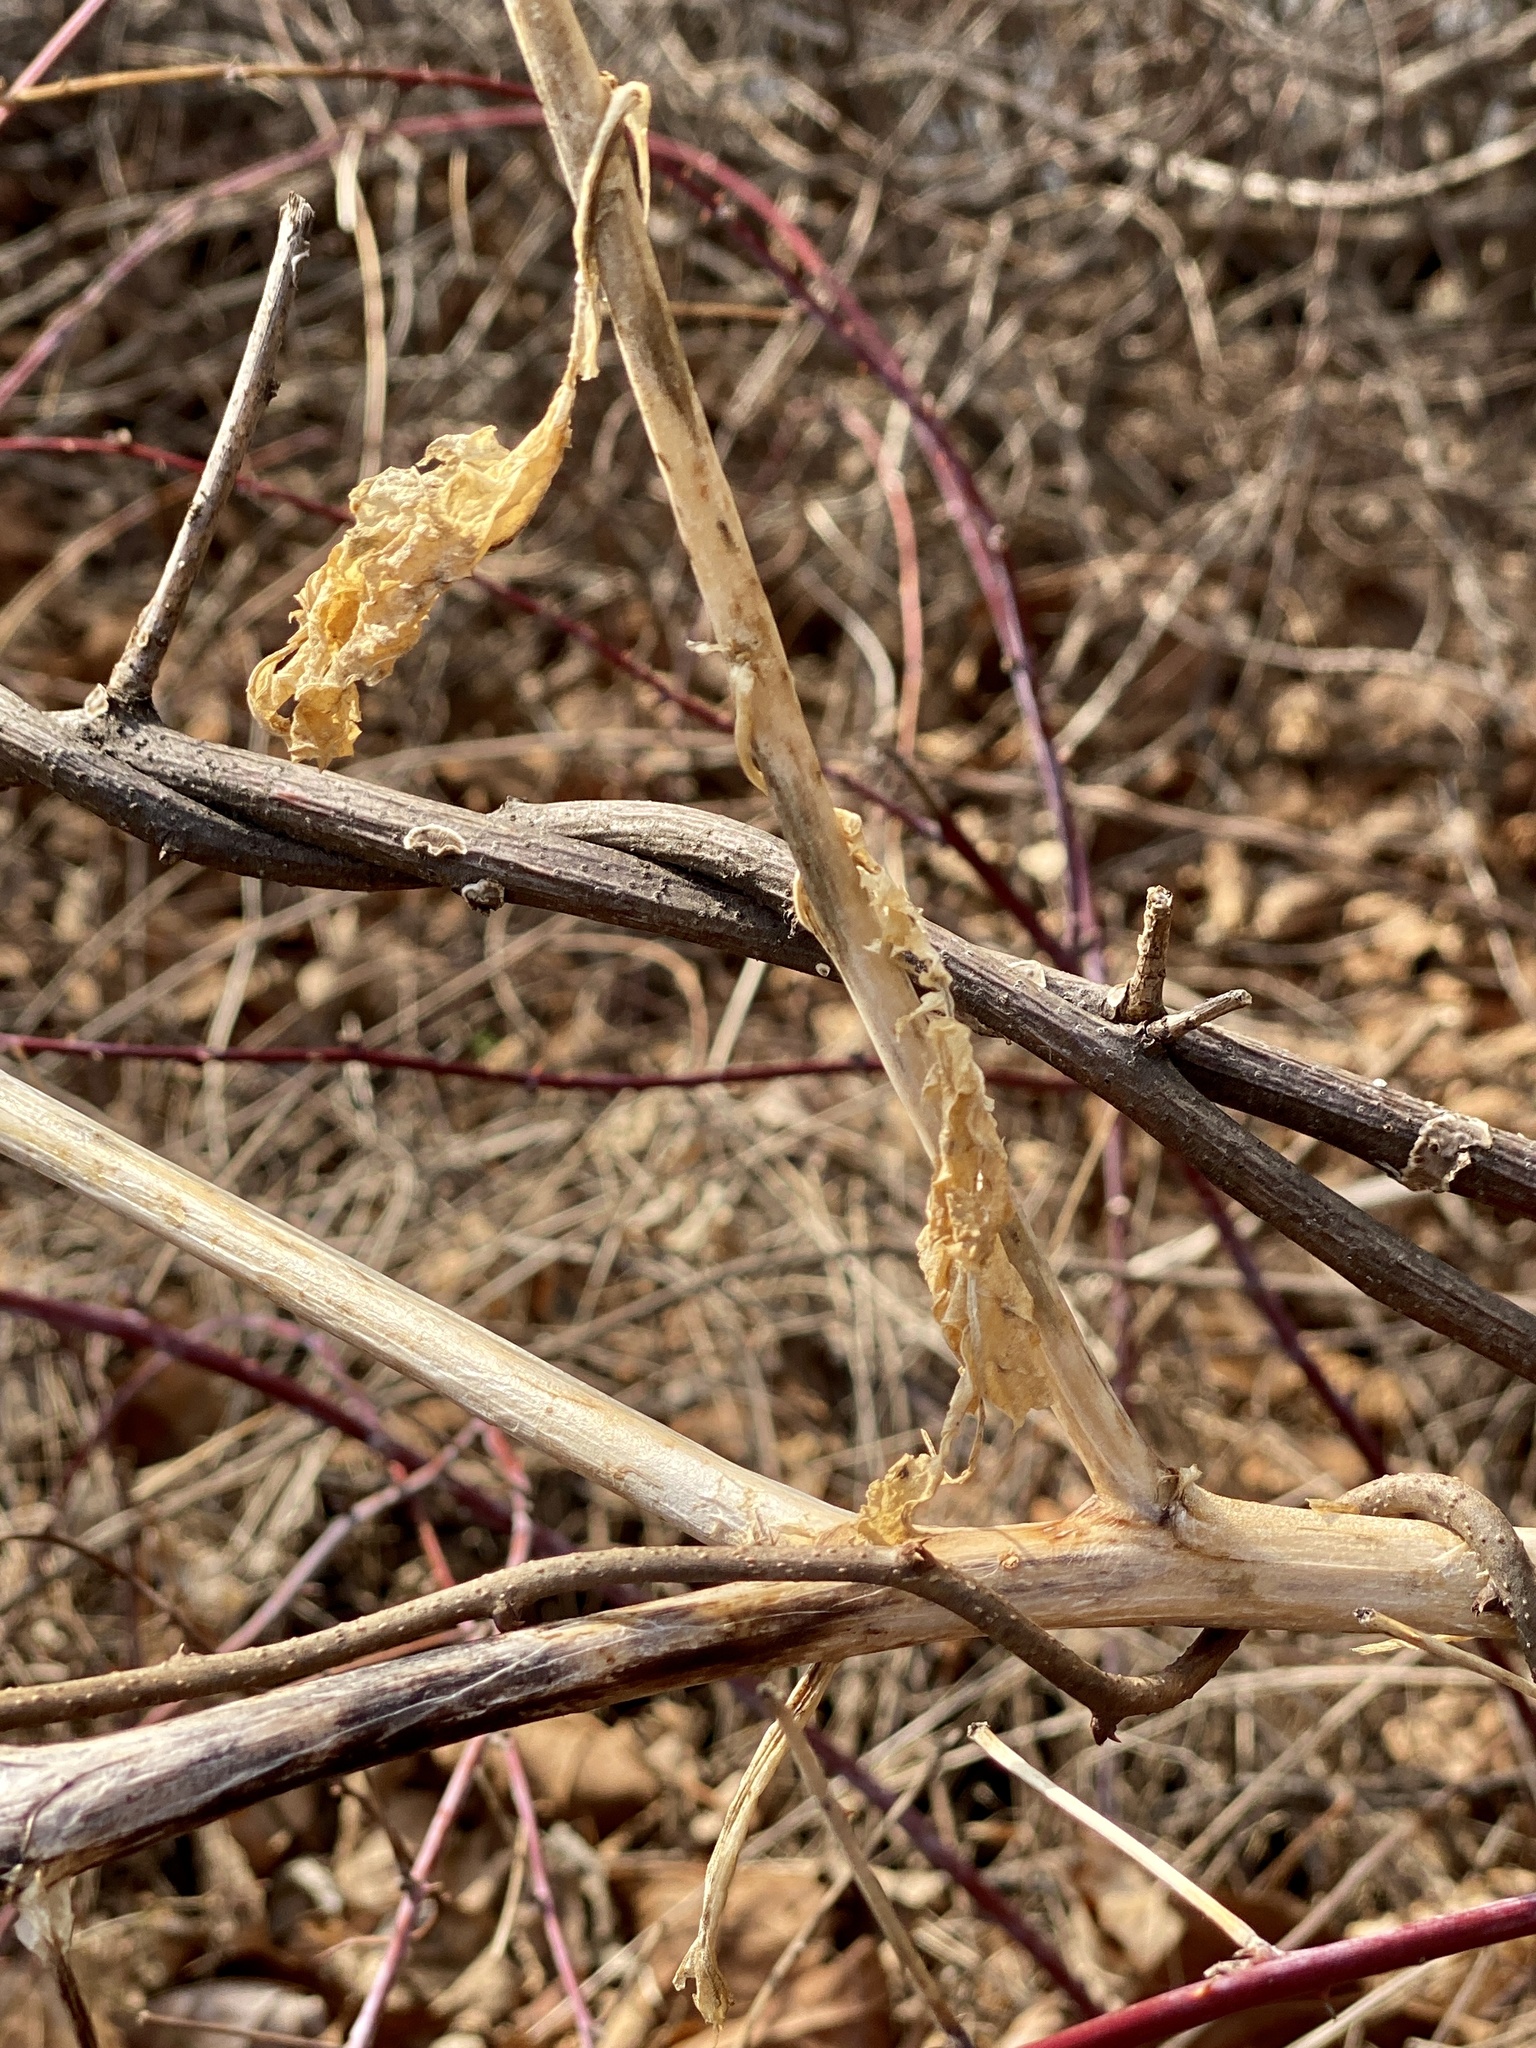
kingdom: Plantae
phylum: Tracheophyta
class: Magnoliopsida
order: Caryophyllales
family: Phytolaccaceae
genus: Phytolacca
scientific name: Phytolacca americana
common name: American pokeweed
